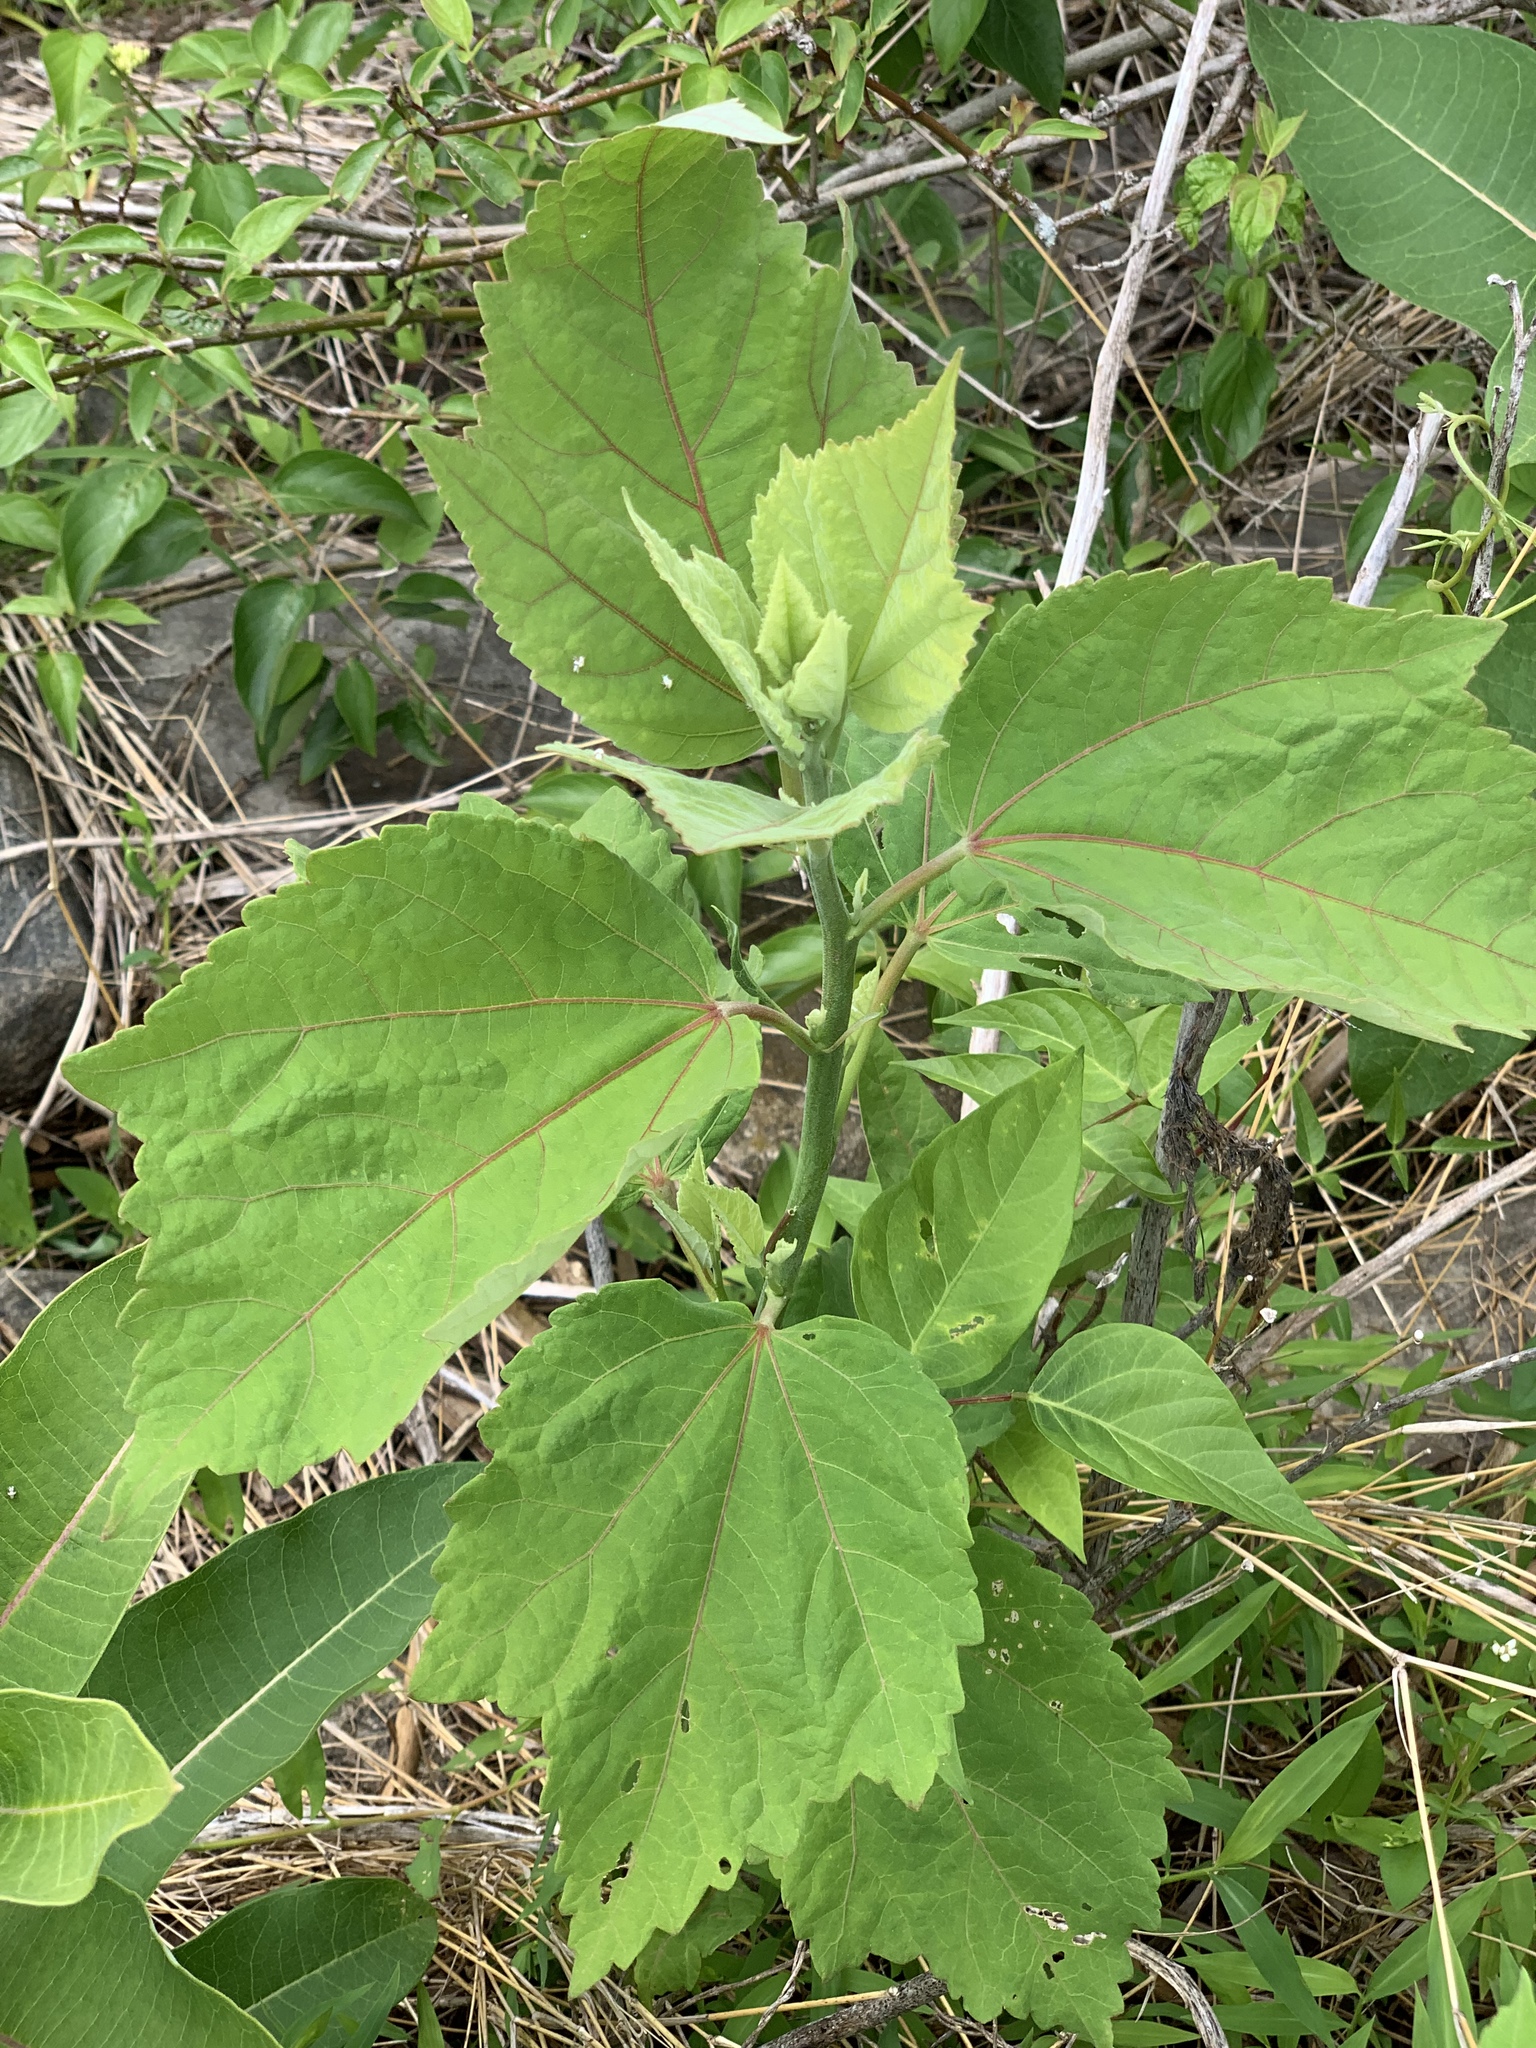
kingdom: Plantae
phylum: Tracheophyta
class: Magnoliopsida
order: Malvales
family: Malvaceae
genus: Hibiscus
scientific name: Hibiscus moscheutos
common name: Common rose-mallow
